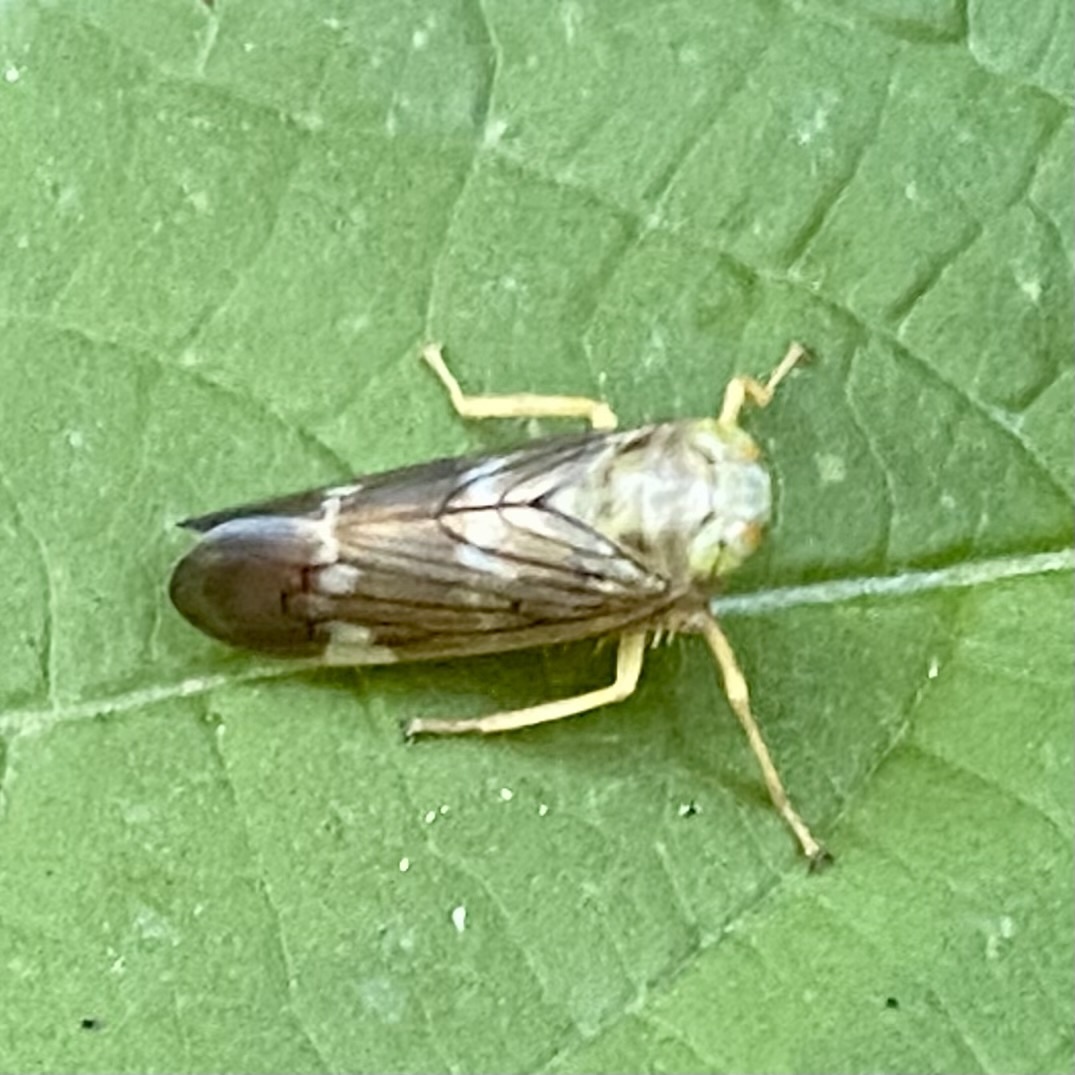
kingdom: Animalia
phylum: Arthropoda
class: Insecta
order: Hemiptera
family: Cicadellidae
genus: Jikradia
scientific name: Jikradia olitoria
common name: Coppery leafhopper
